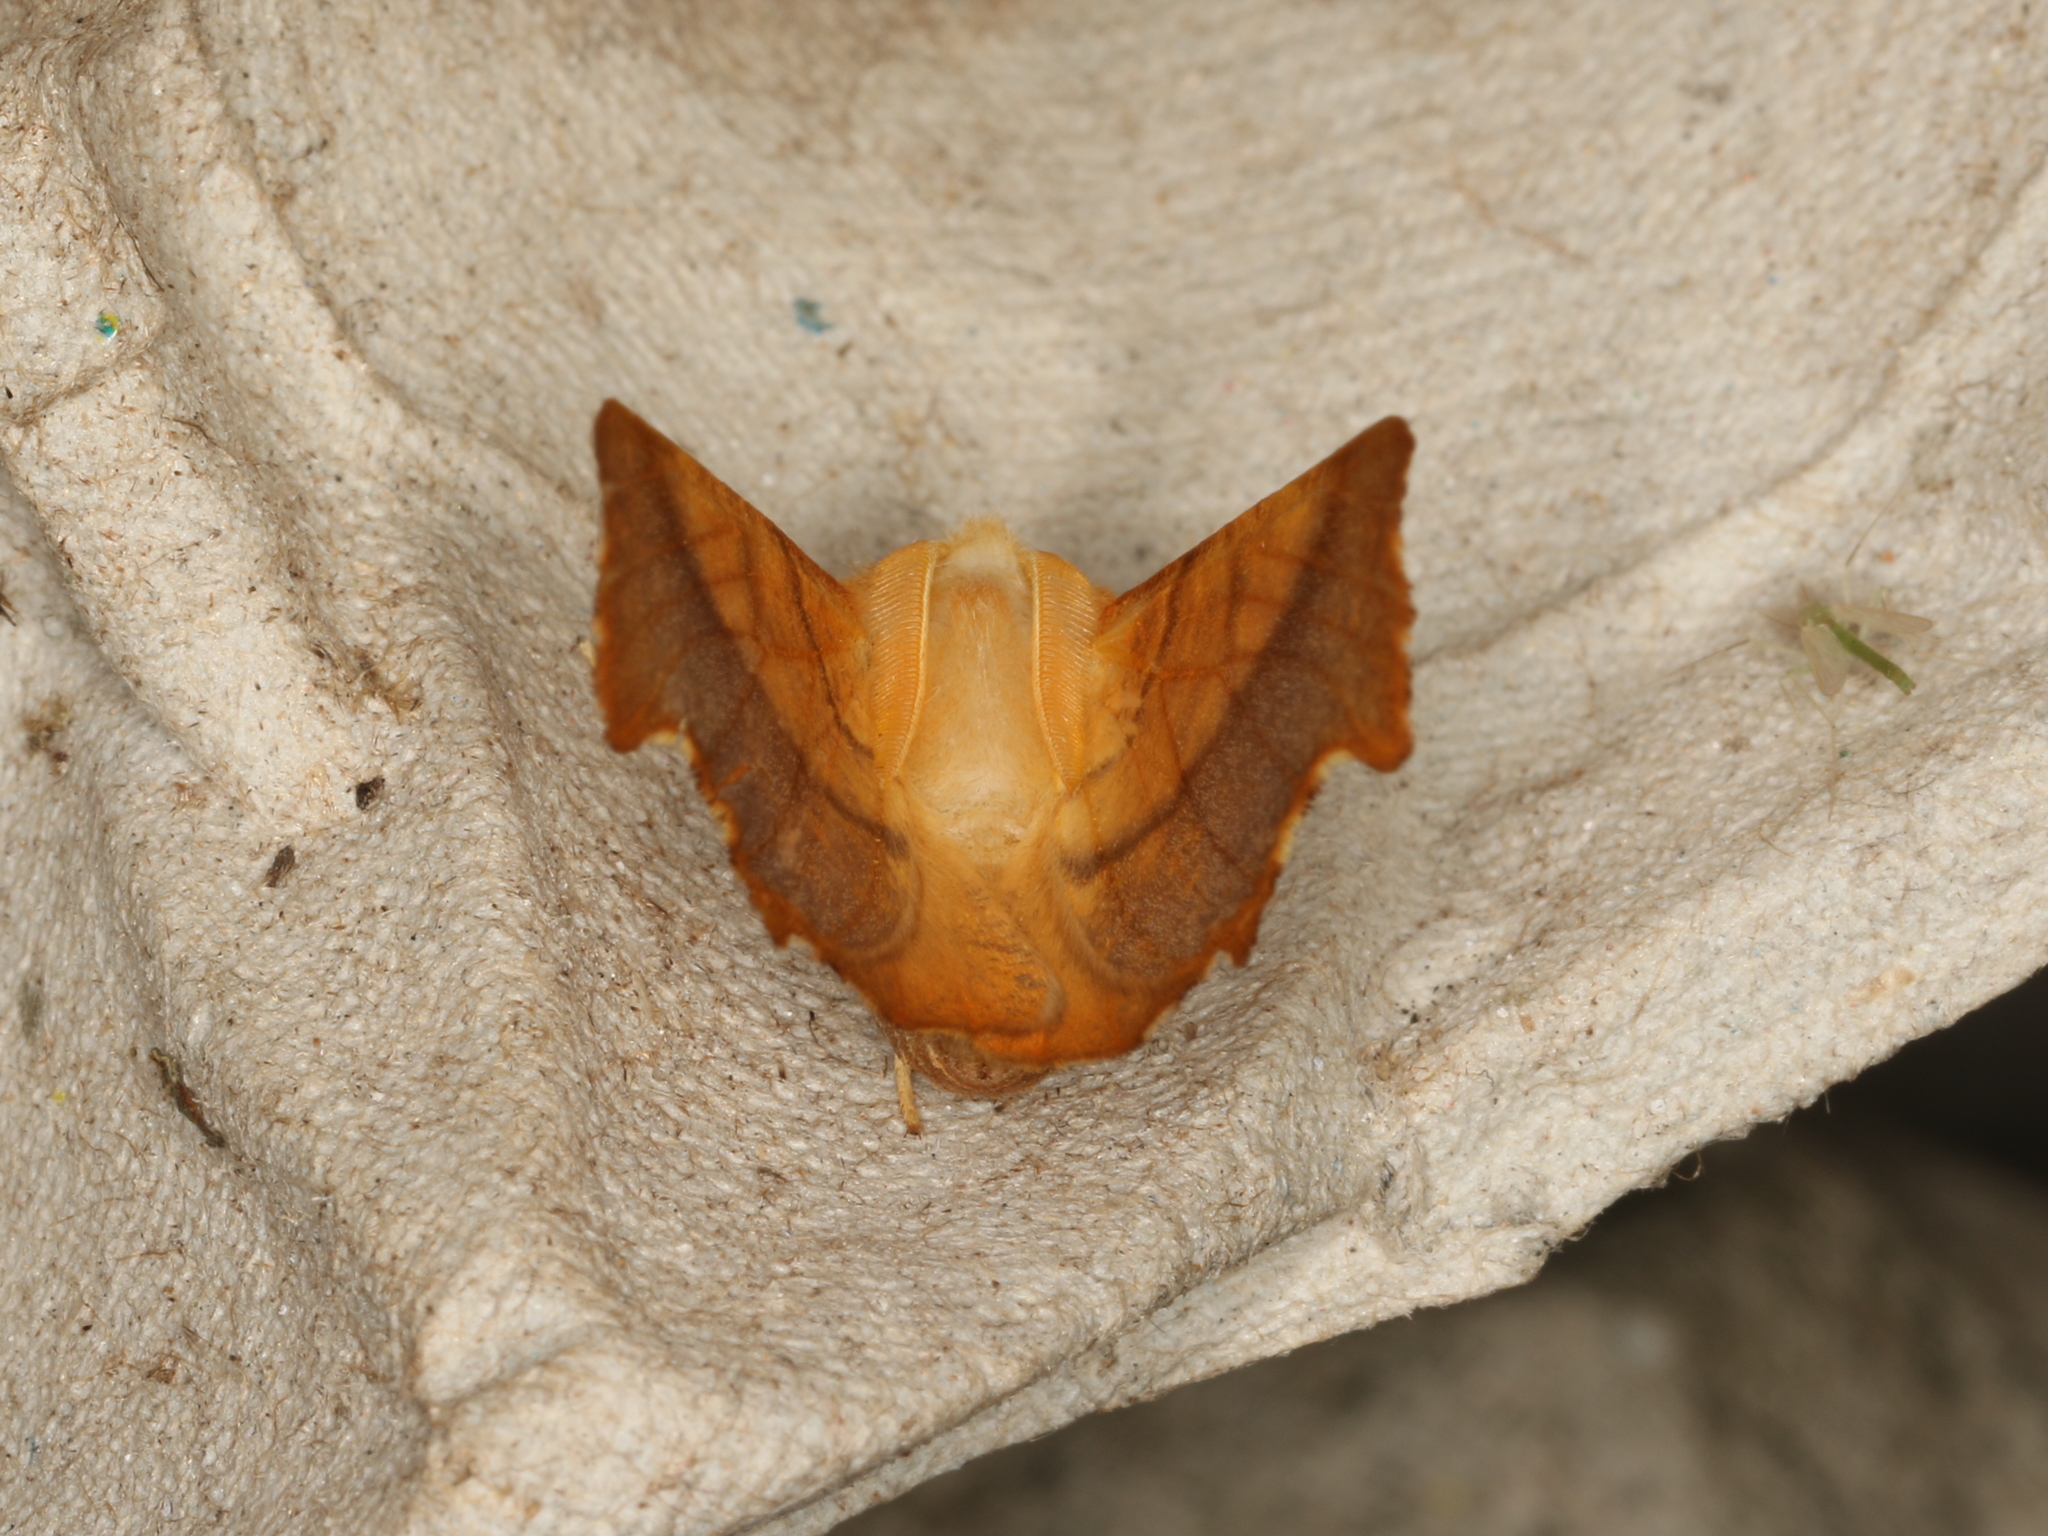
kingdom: Animalia
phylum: Arthropoda
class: Insecta
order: Lepidoptera
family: Geometridae
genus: Ennomos
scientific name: Ennomos fuscantaria
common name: Dusky thorn
